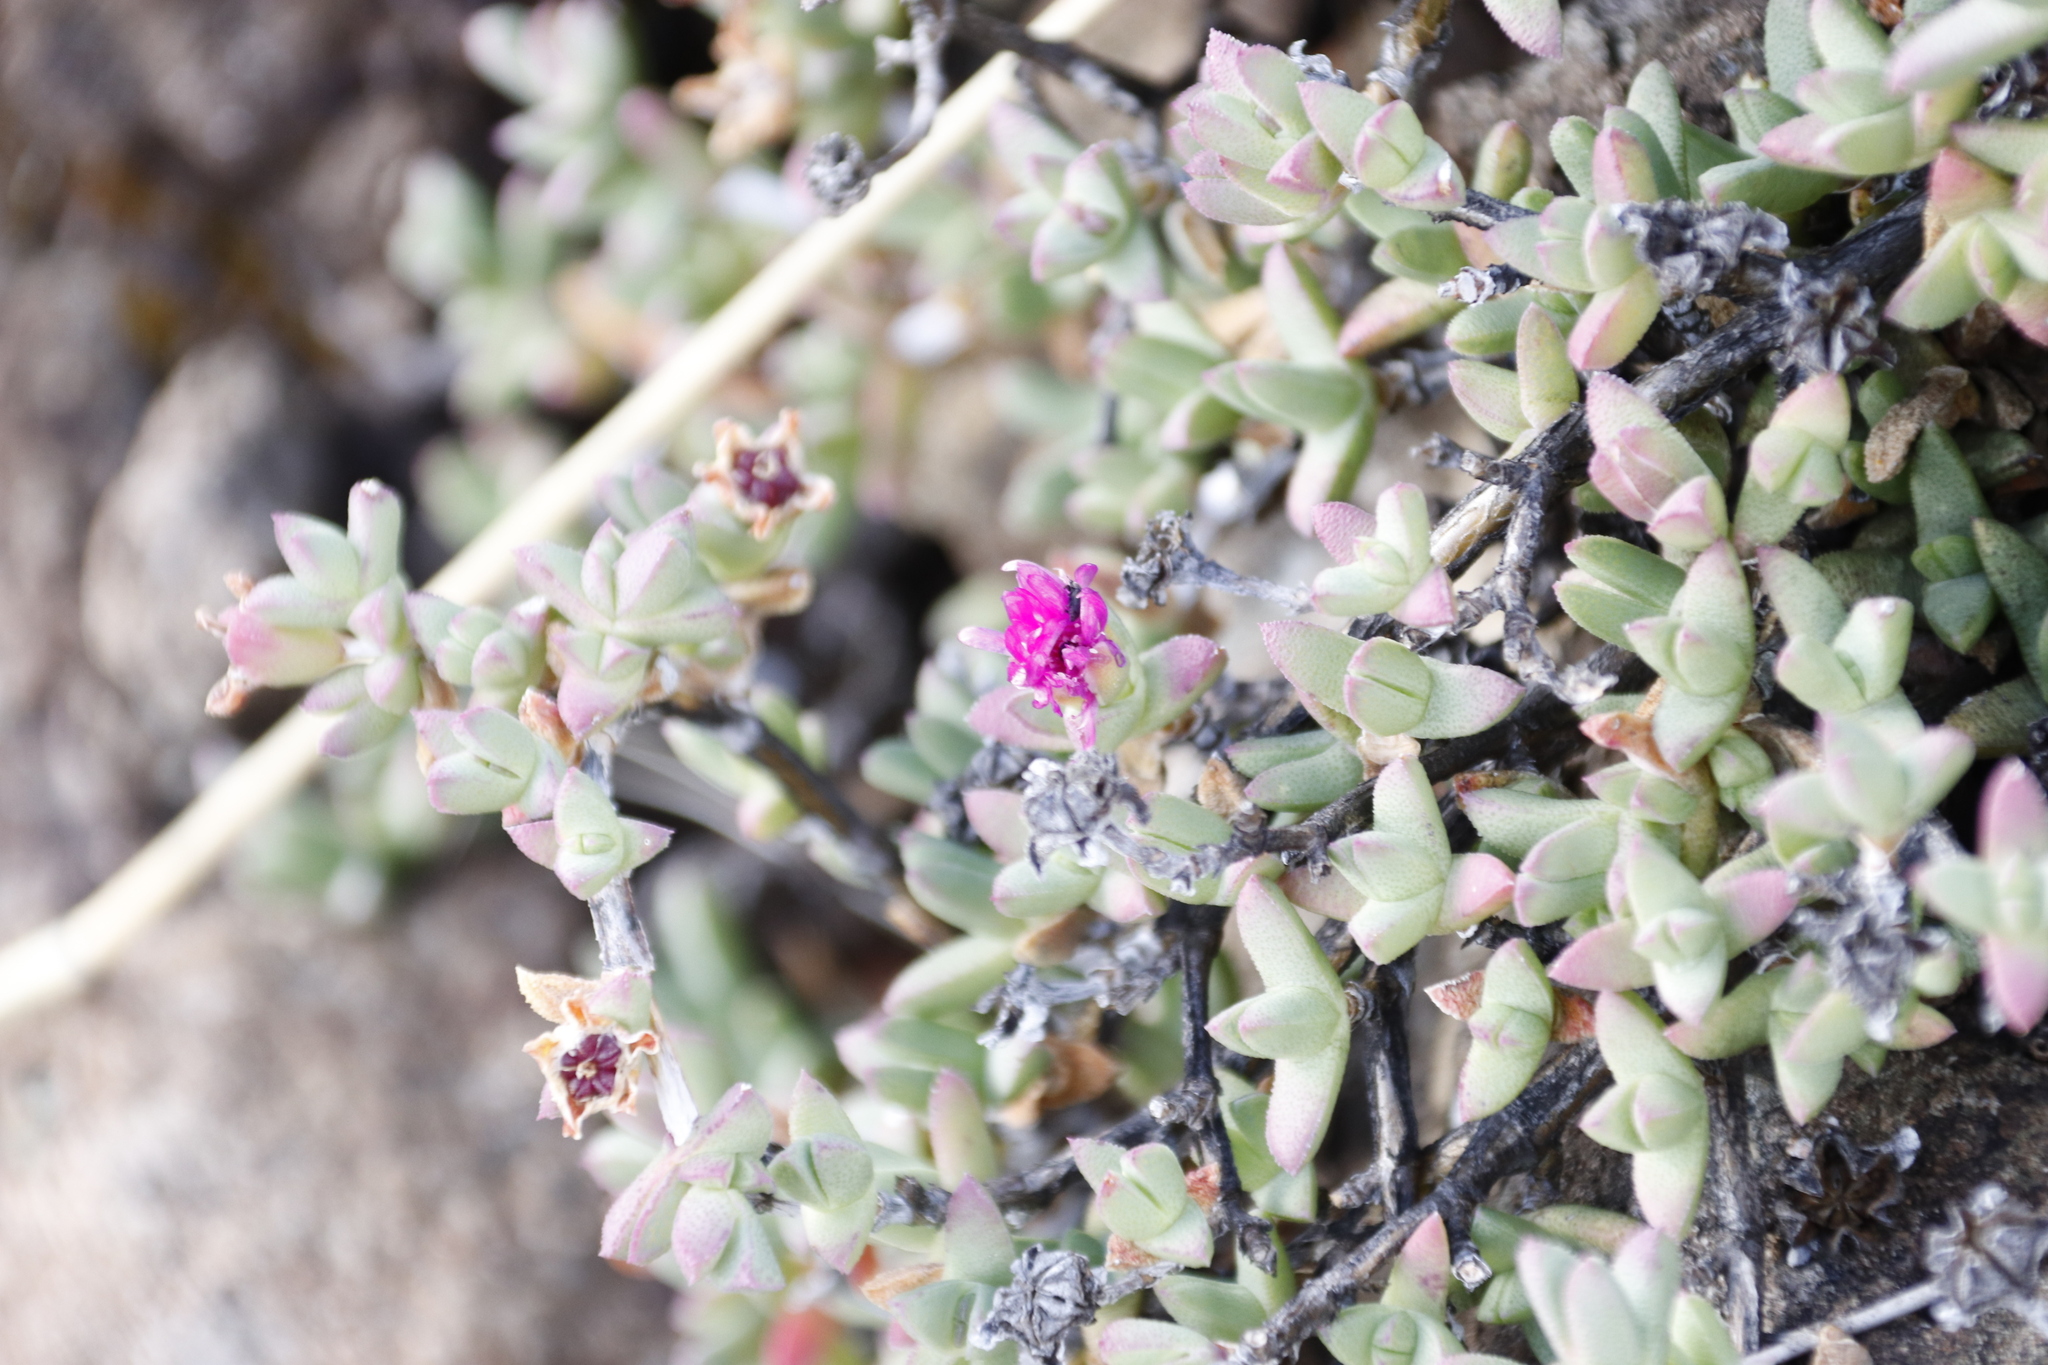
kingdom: Plantae
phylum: Tracheophyta
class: Magnoliopsida
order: Caryophyllales
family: Aizoaceae
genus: Ruschia
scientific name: Ruschia putterillii
